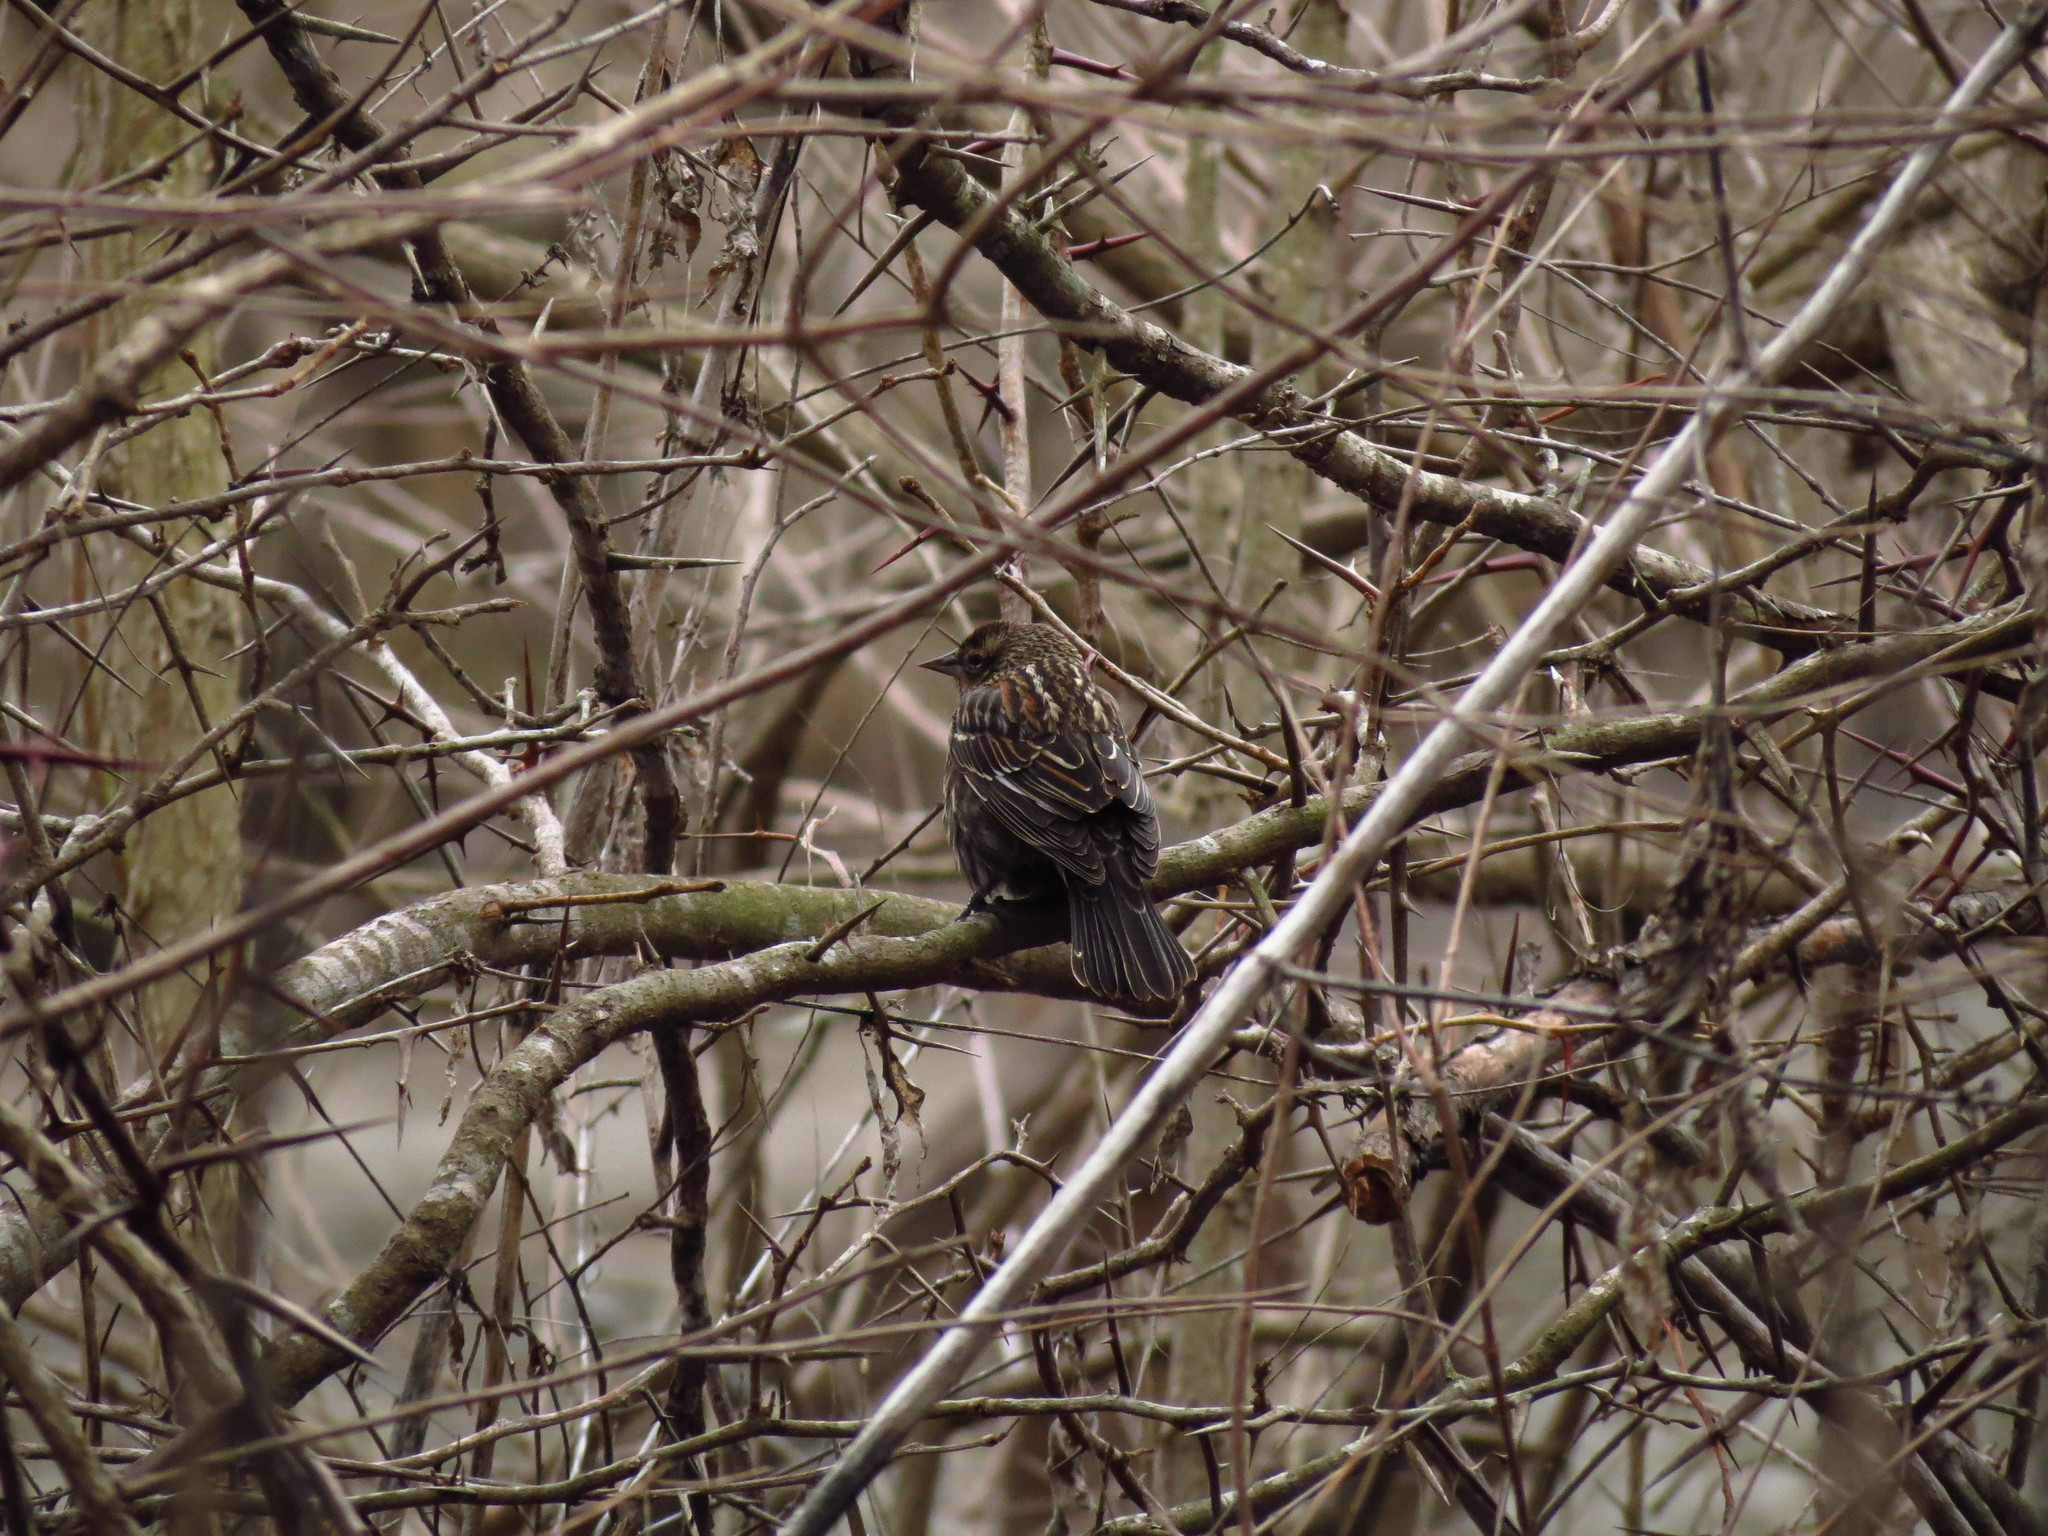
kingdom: Animalia
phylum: Chordata
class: Aves
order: Passeriformes
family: Icteridae
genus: Agelaius
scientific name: Agelaius phoeniceus
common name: Red-winged blackbird
